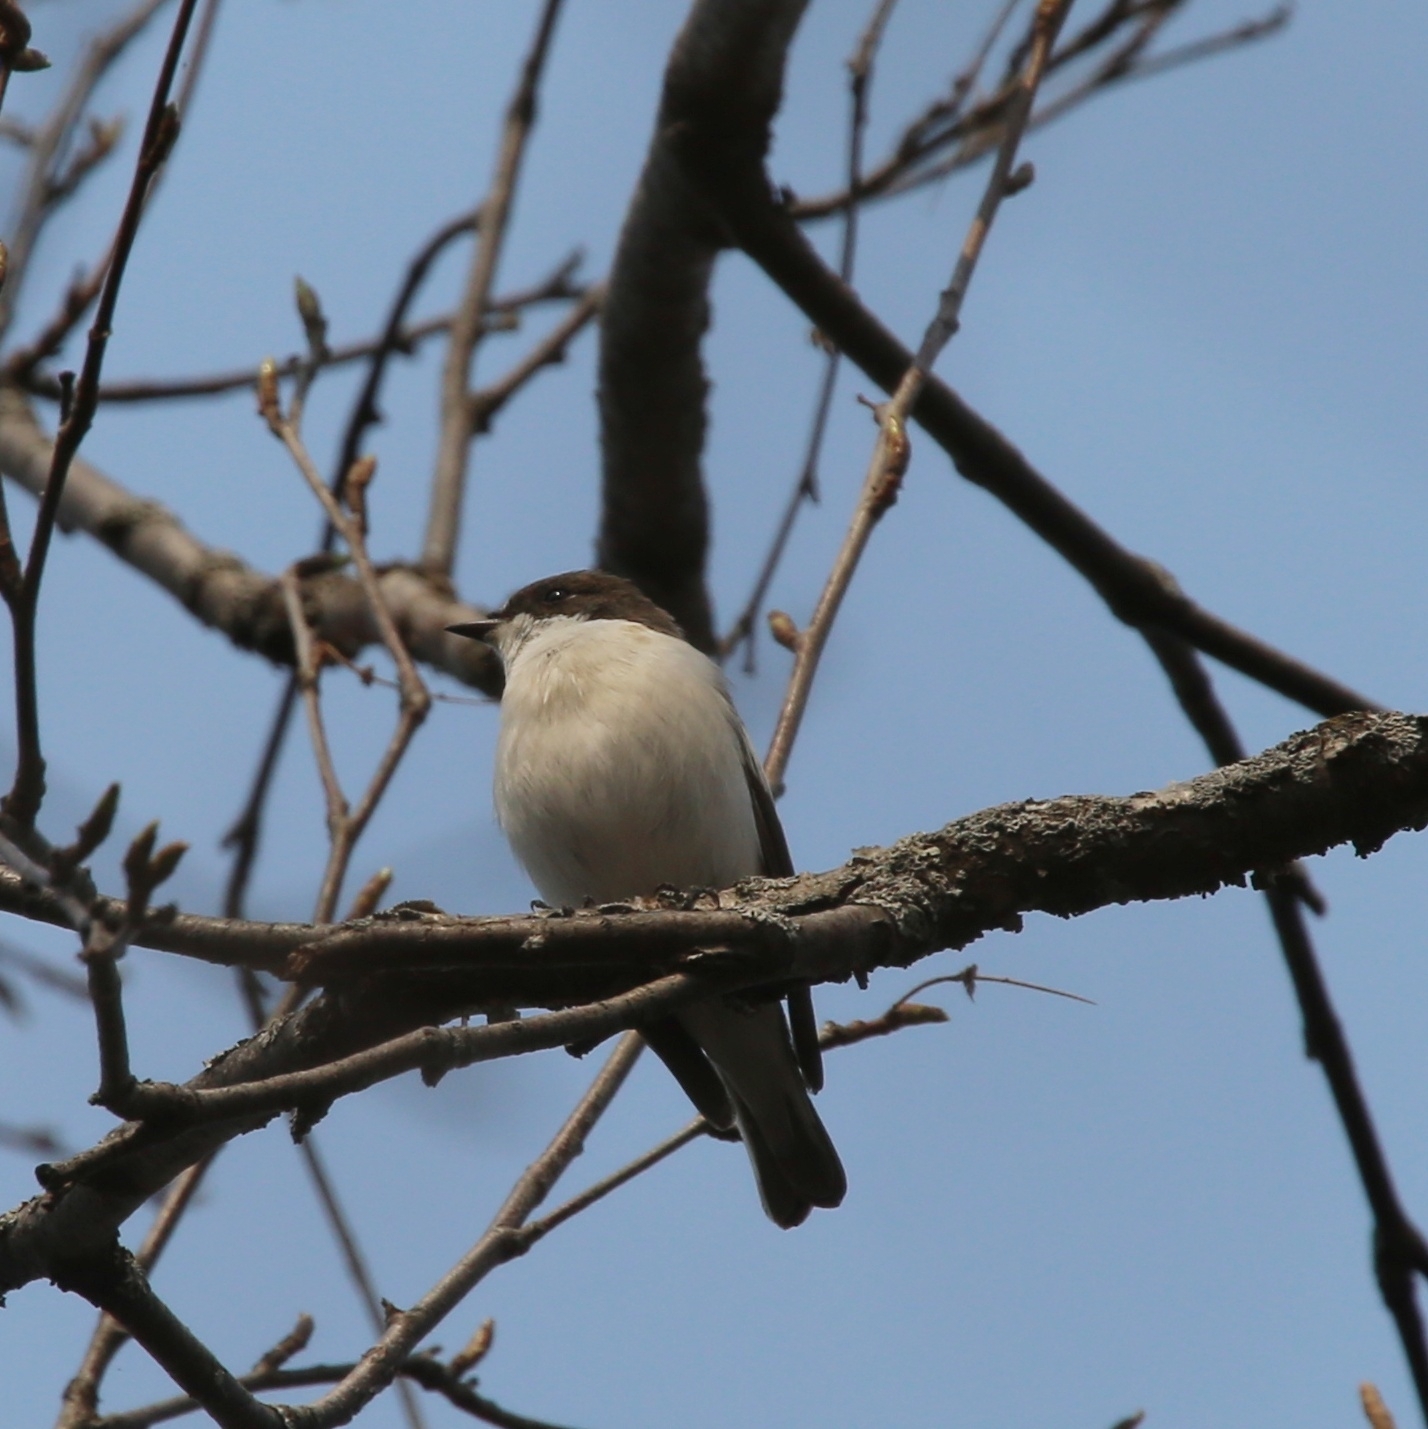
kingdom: Animalia
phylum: Chordata
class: Aves
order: Passeriformes
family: Muscicapidae
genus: Ficedula
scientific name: Ficedula hypoleuca
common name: European pied flycatcher
